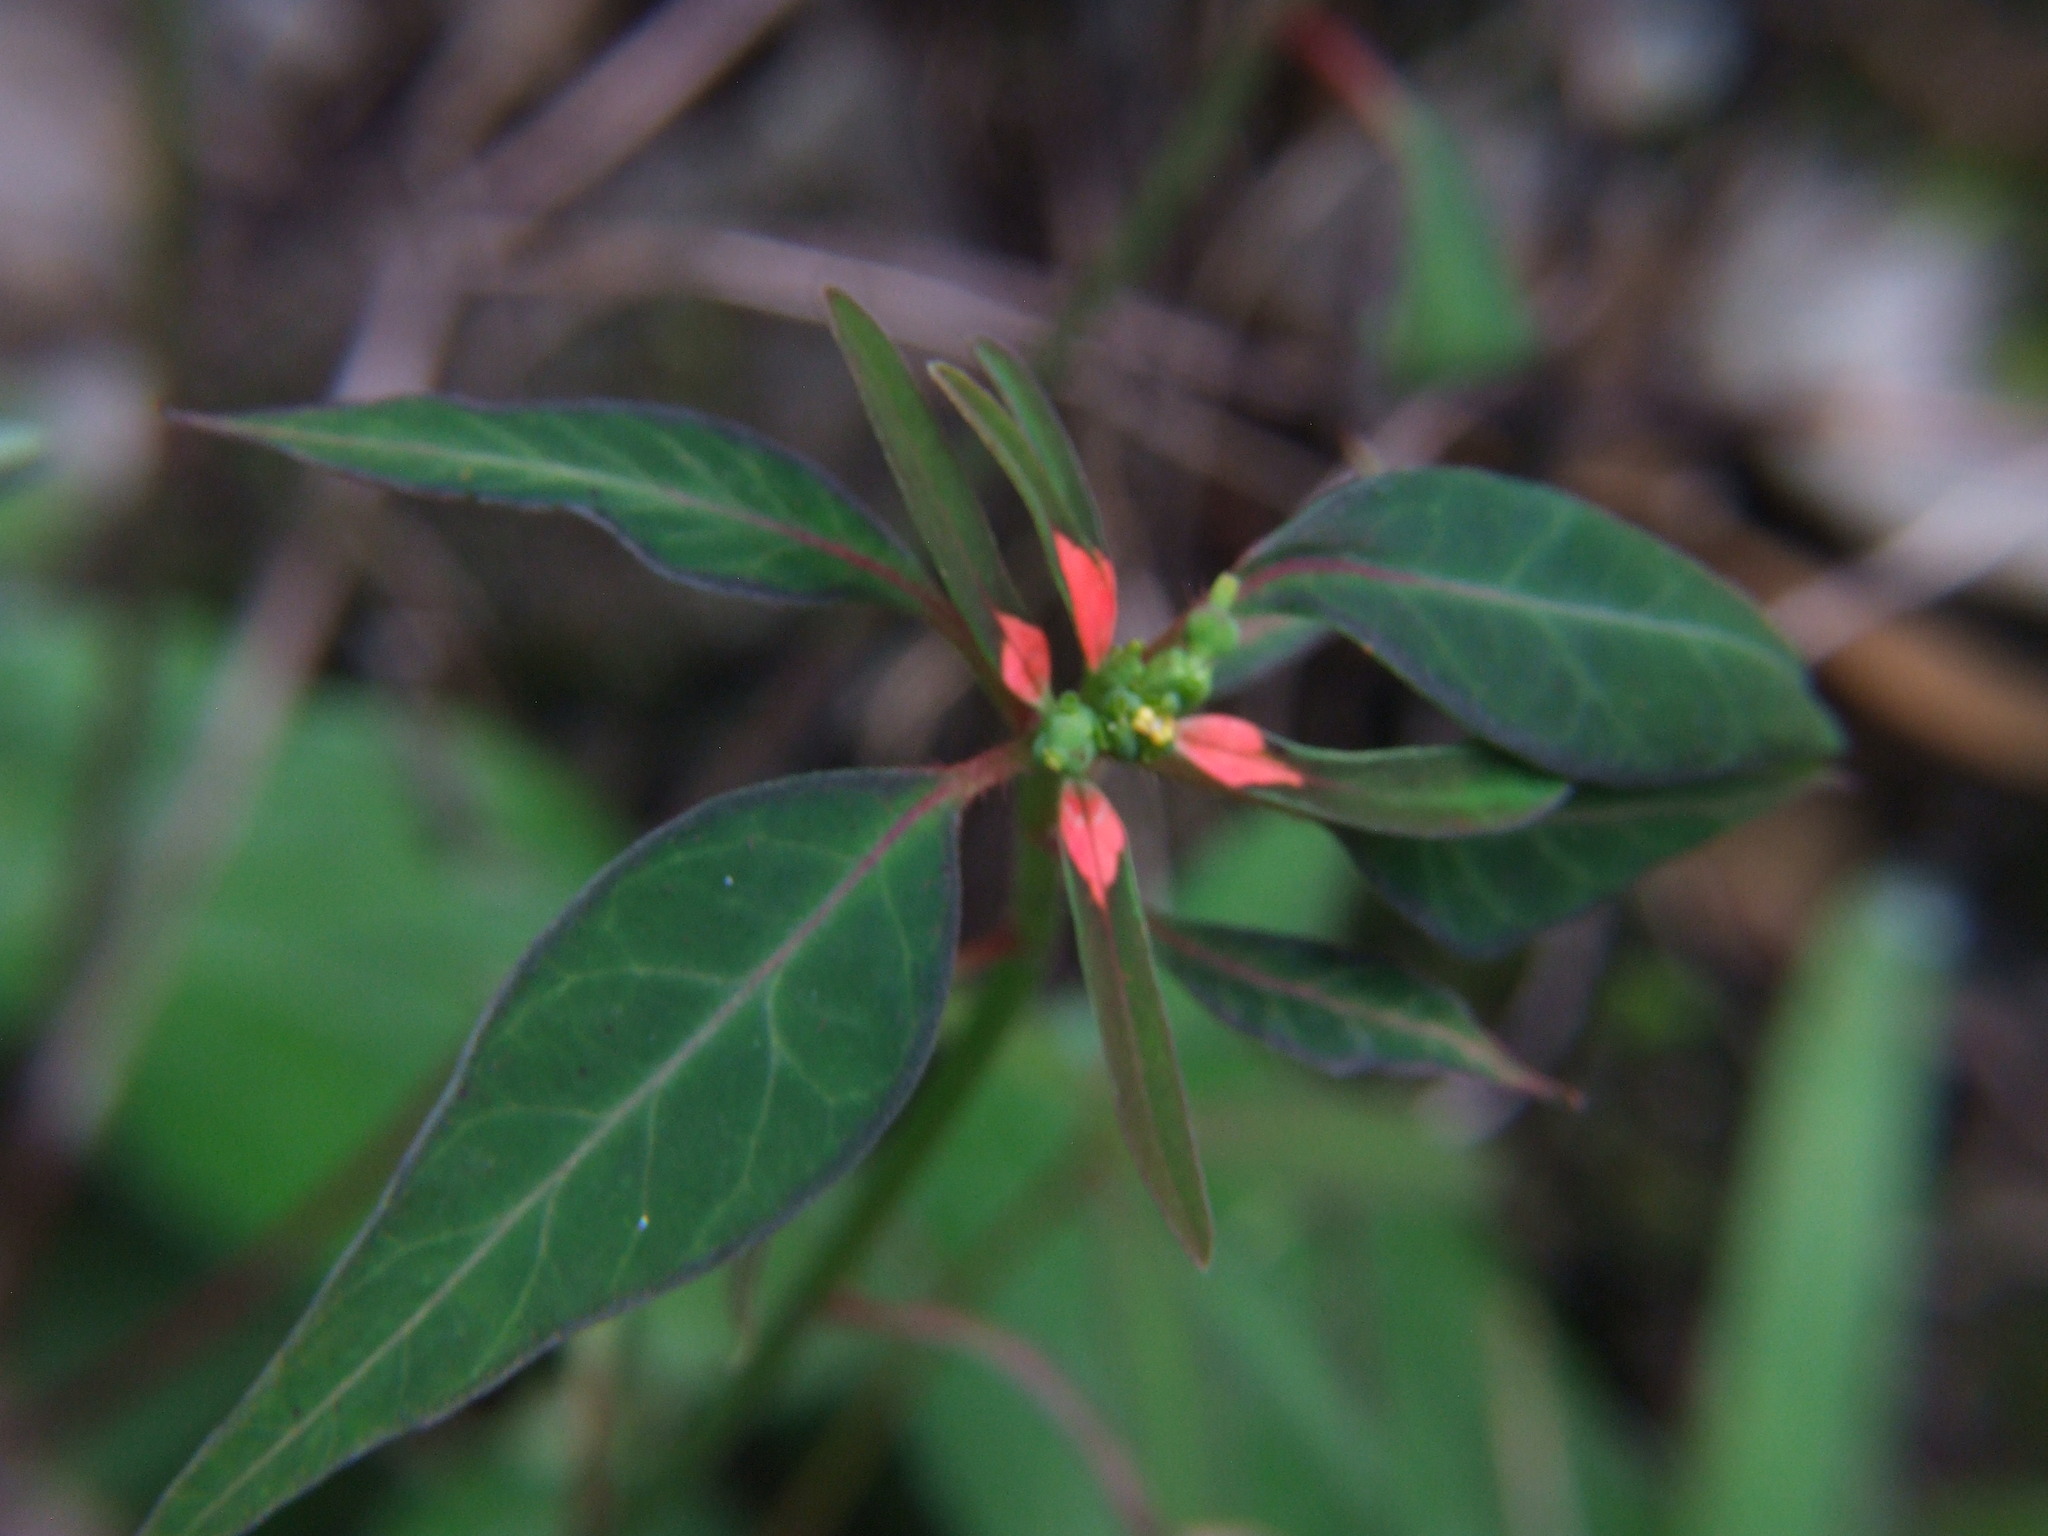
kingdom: Plantae
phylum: Tracheophyta
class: Magnoliopsida
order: Malpighiales
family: Euphorbiaceae
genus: Euphorbia
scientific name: Euphorbia elliptica
